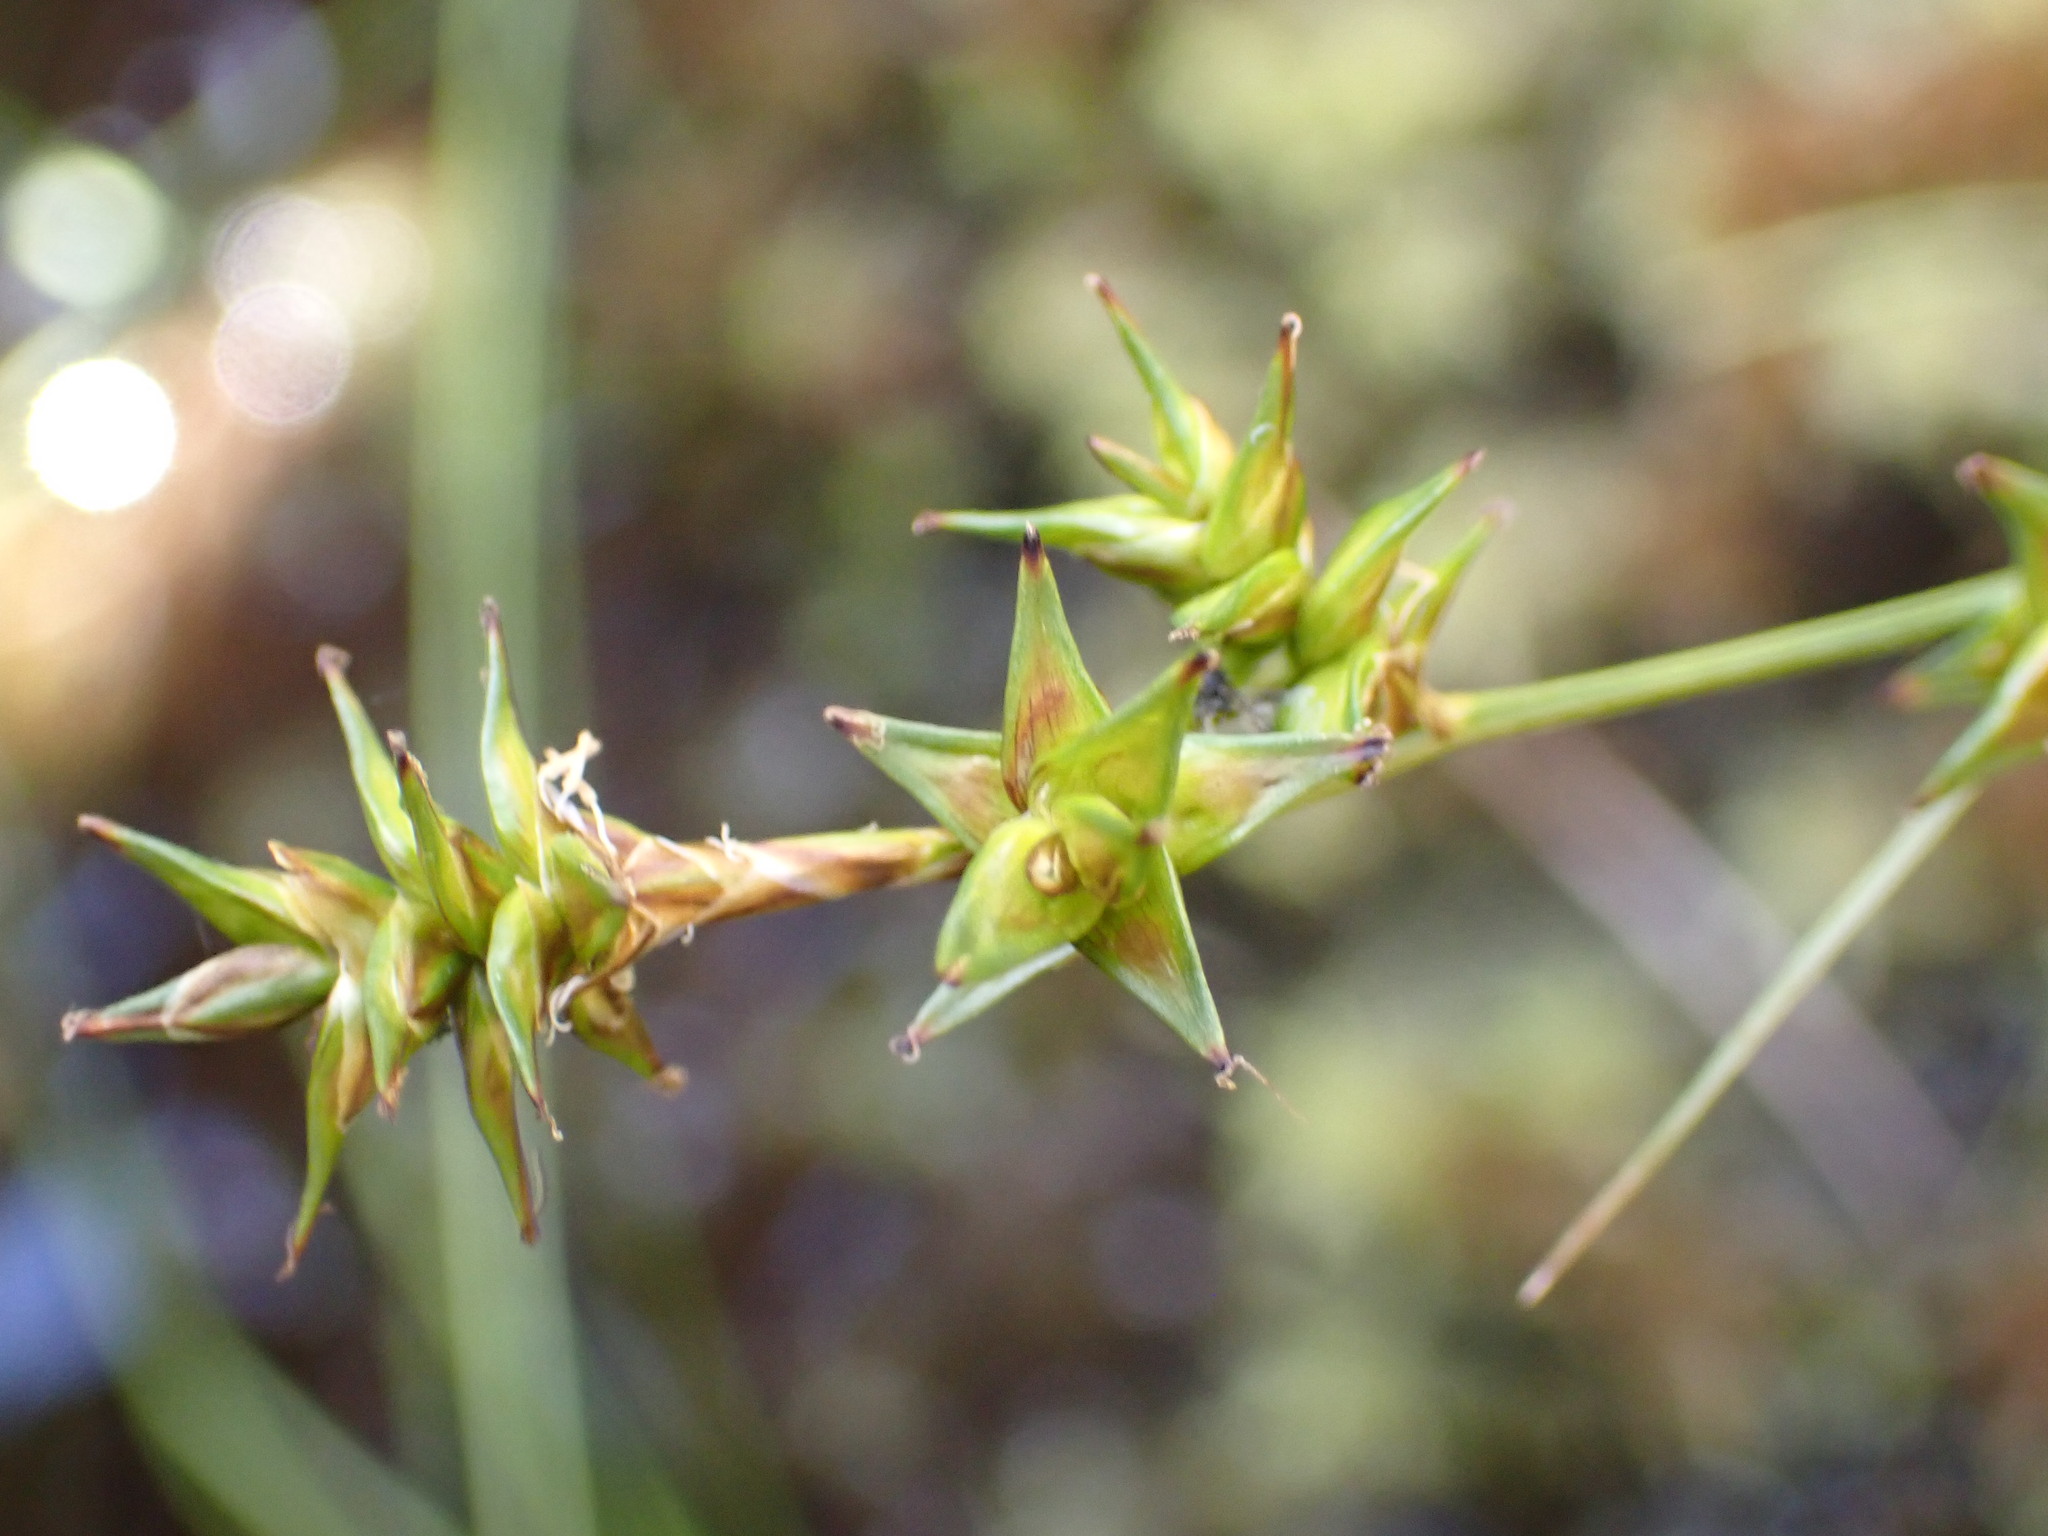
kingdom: Plantae
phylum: Tracheophyta
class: Liliopsida
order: Poales
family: Cyperaceae
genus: Carex
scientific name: Carex echinata
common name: Star sedge
